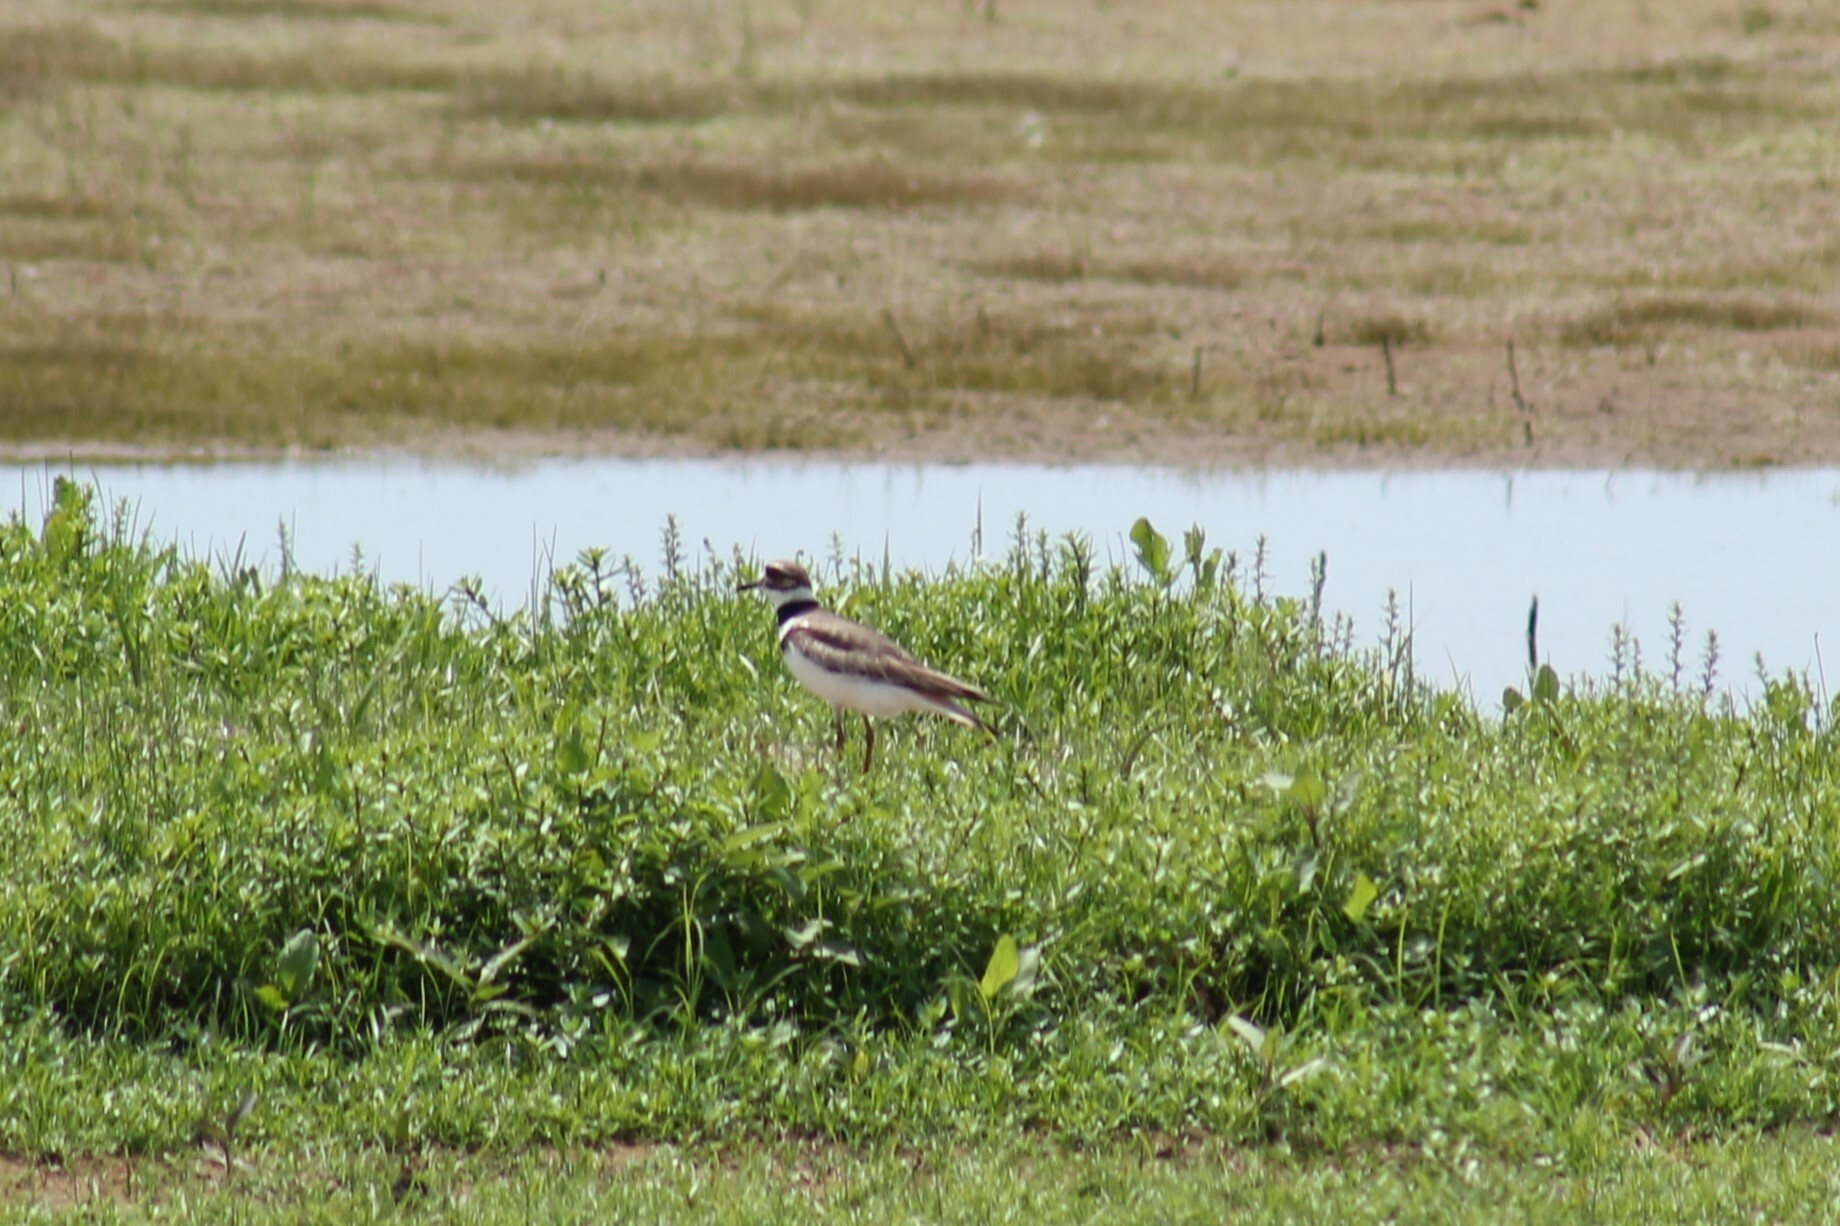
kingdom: Animalia
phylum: Chordata
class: Aves
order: Charadriiformes
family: Charadriidae
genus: Charadrius
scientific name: Charadrius vociferus
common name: Killdeer
